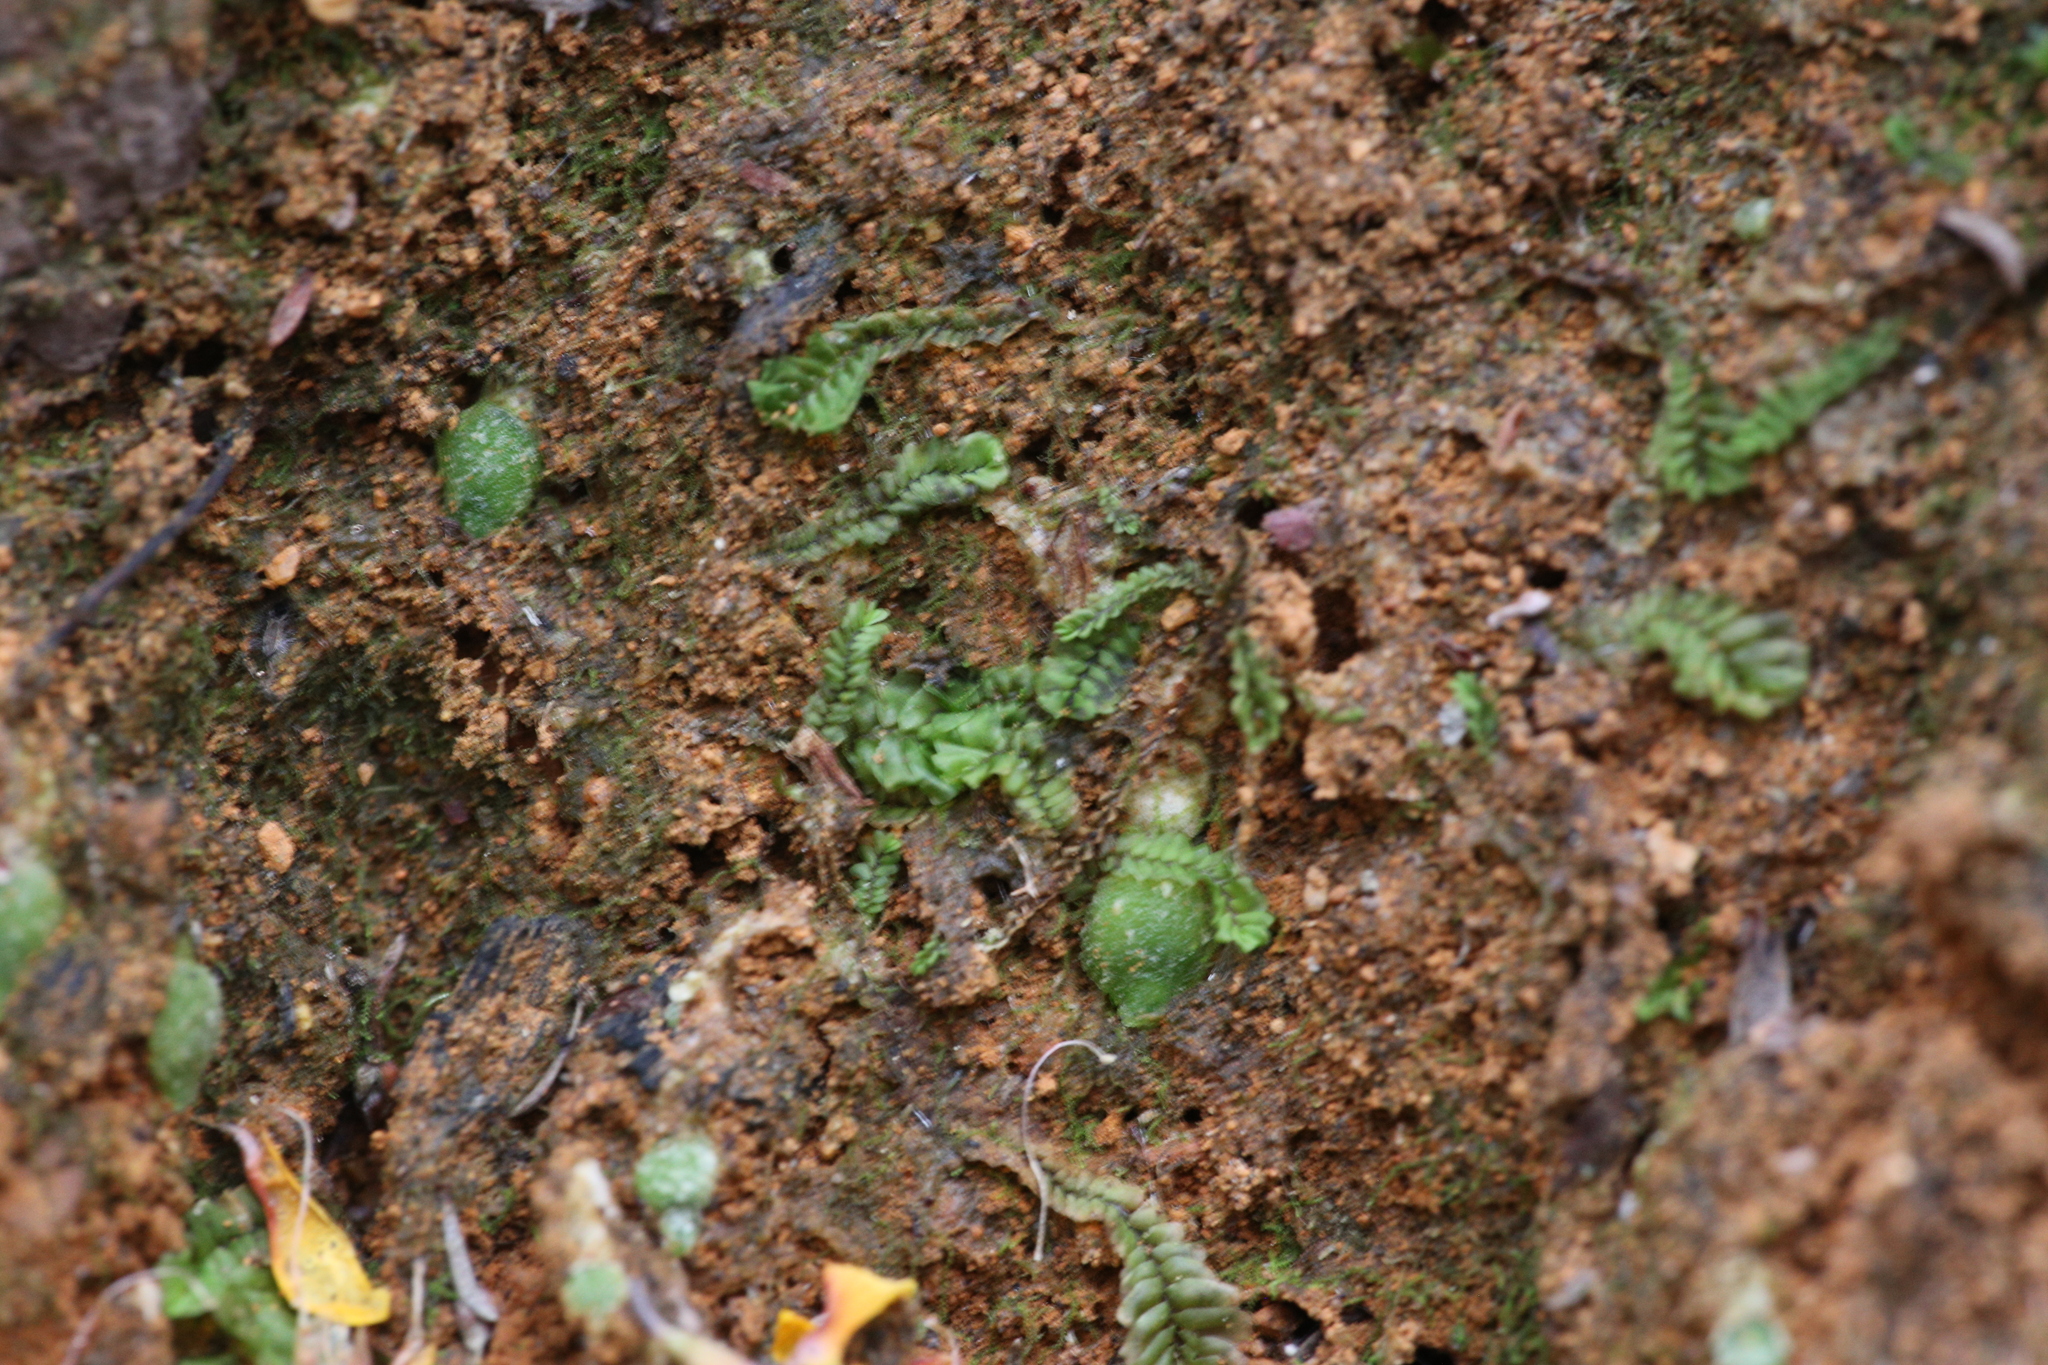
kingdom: Plantae
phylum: Marchantiophyta
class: Jungermanniopsida
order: Jungermanniales
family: Acrobolbaceae
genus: Lethocolea
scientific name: Lethocolea pansa
